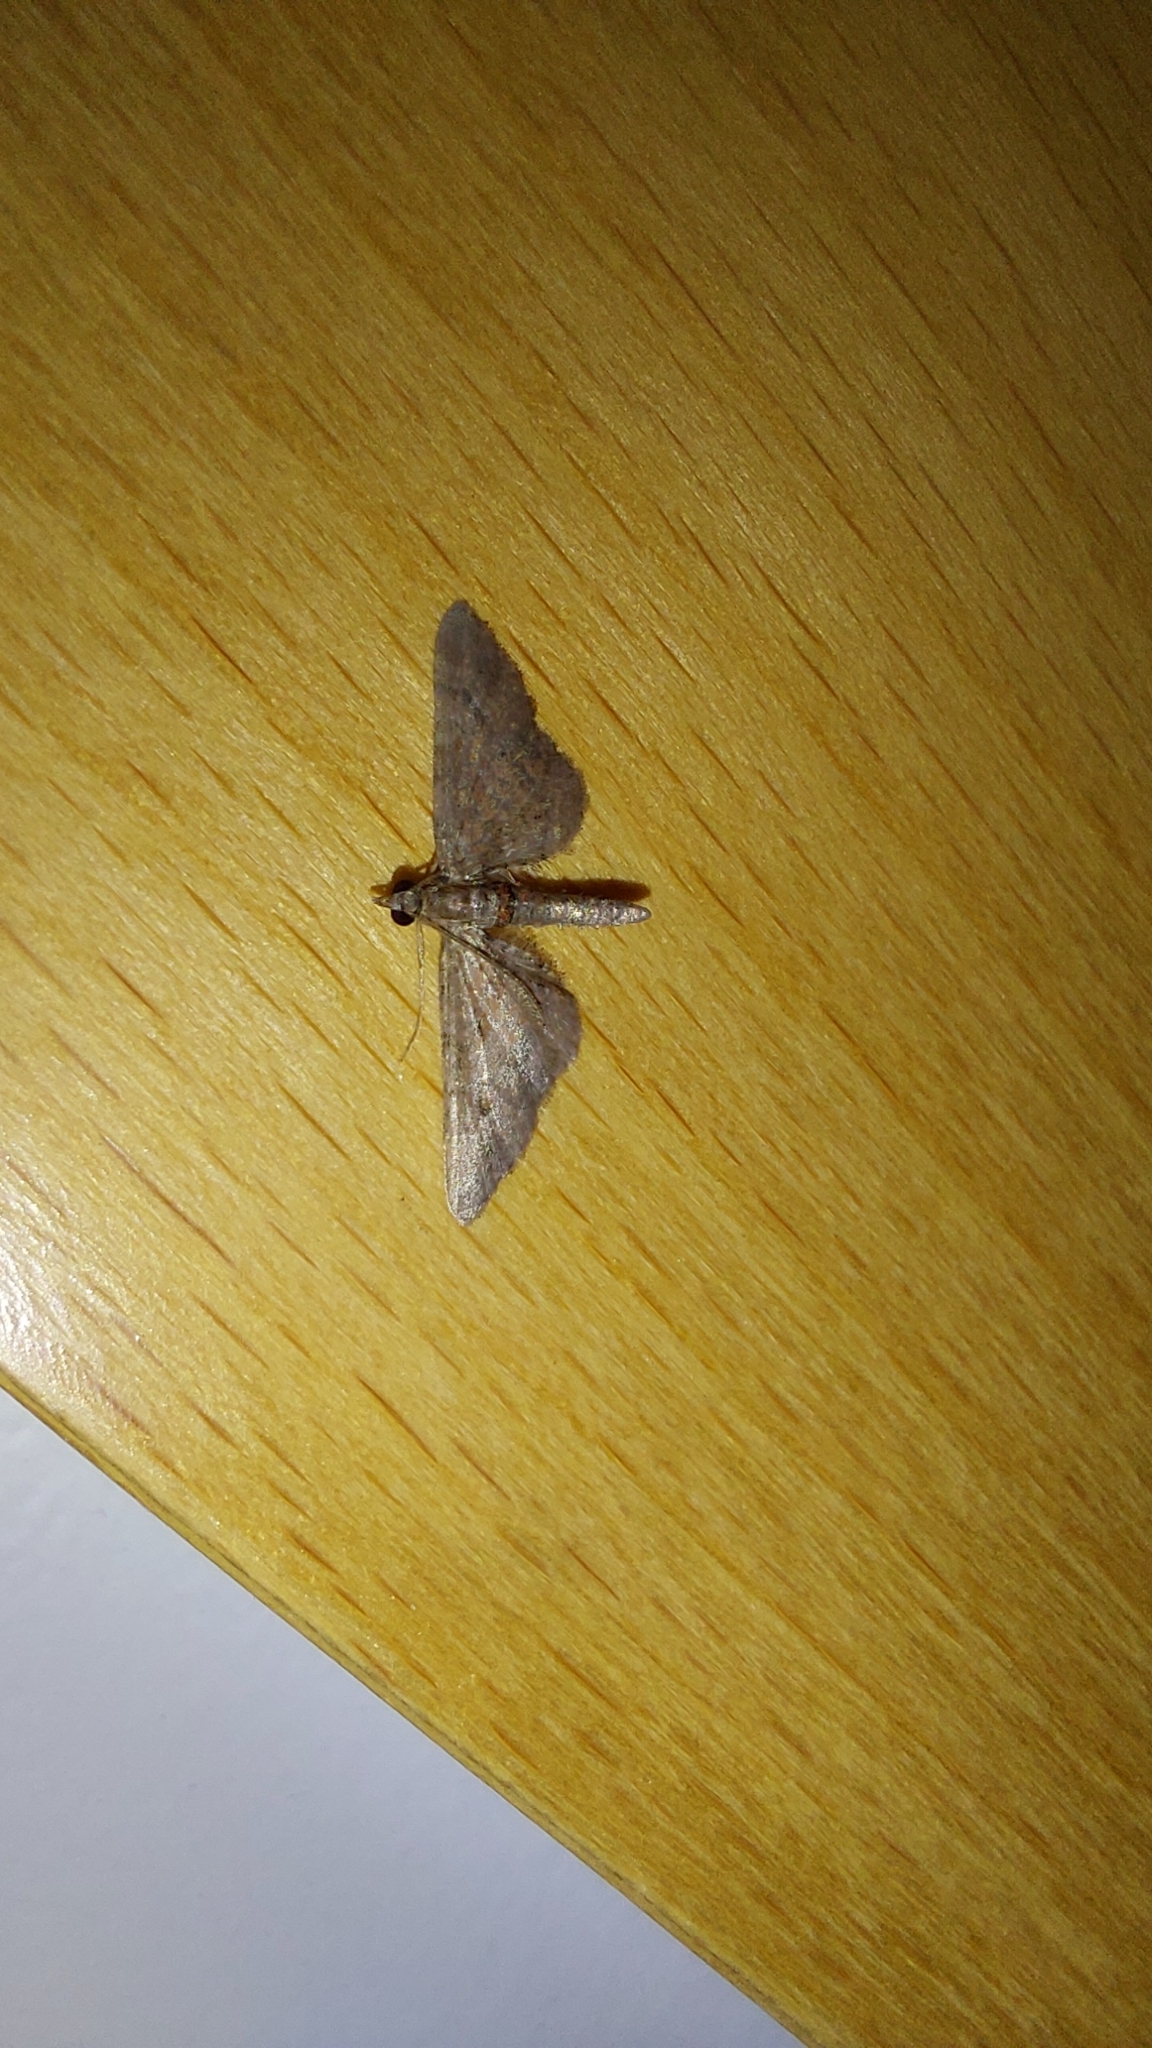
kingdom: Animalia
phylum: Arthropoda
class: Insecta
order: Lepidoptera
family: Geometridae
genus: Gymnoscelis
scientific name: Gymnoscelis rufifasciata
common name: Double-striped pug
